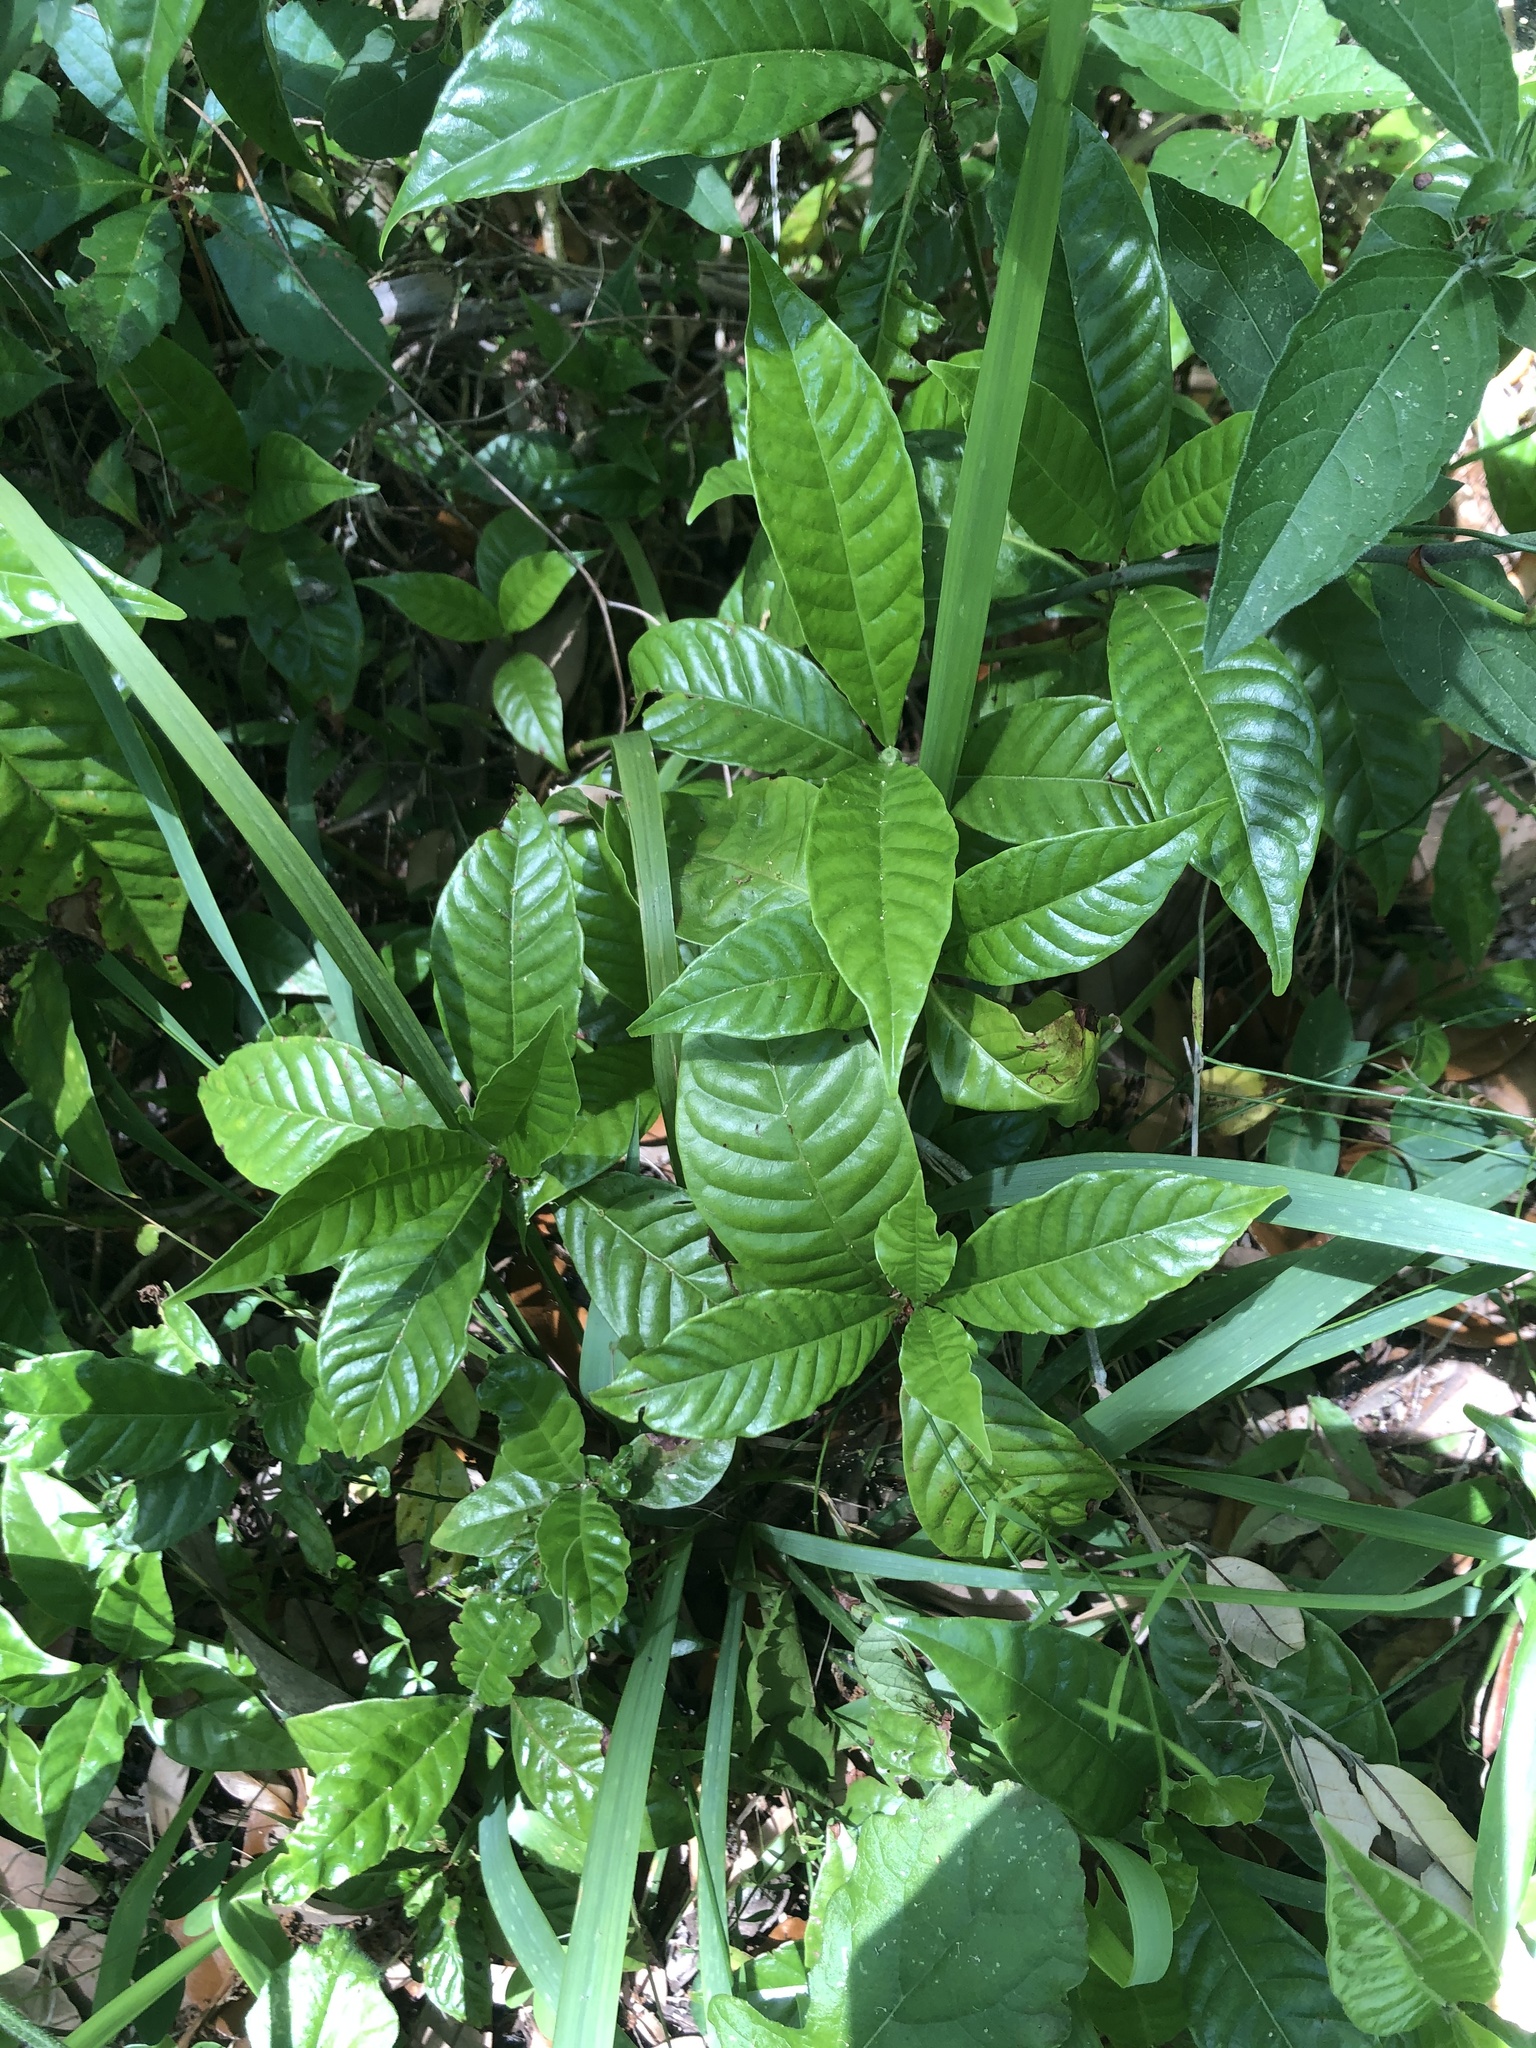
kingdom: Plantae
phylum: Tracheophyta
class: Magnoliopsida
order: Gentianales
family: Rubiaceae
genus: Psychotria
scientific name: Psychotria nervosa
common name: Bastard cankerberry
